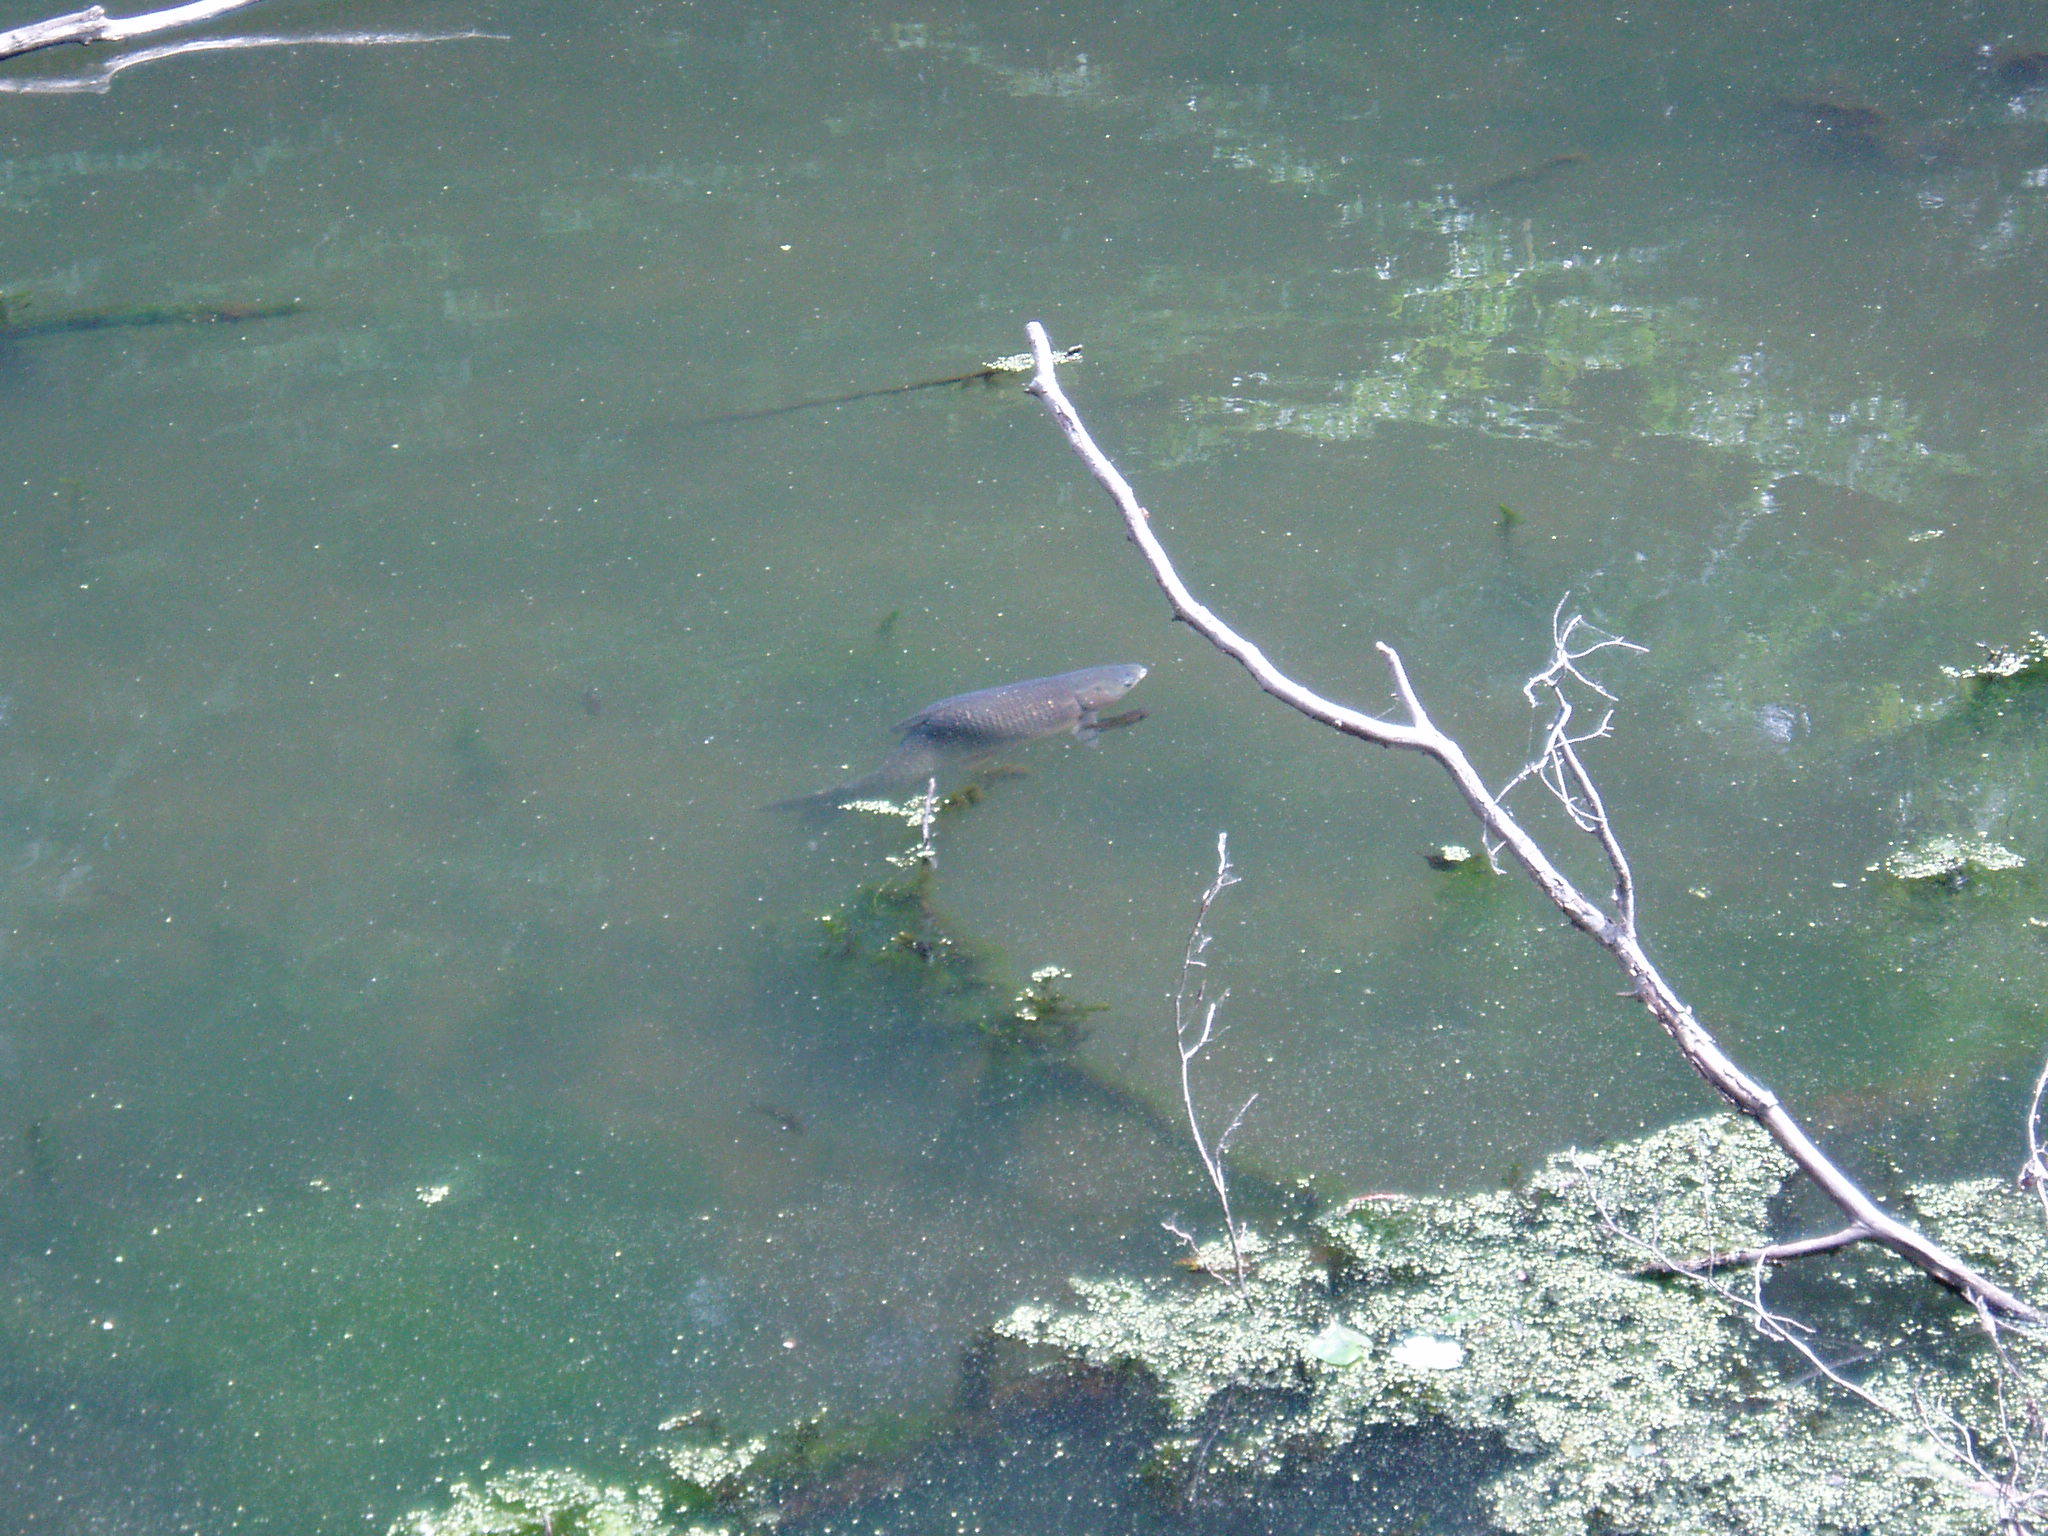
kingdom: Animalia
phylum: Chordata
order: Cypriniformes
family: Cyprinidae
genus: Ctenopharyngodon
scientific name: Ctenopharyngodon idella
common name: Grass carp
